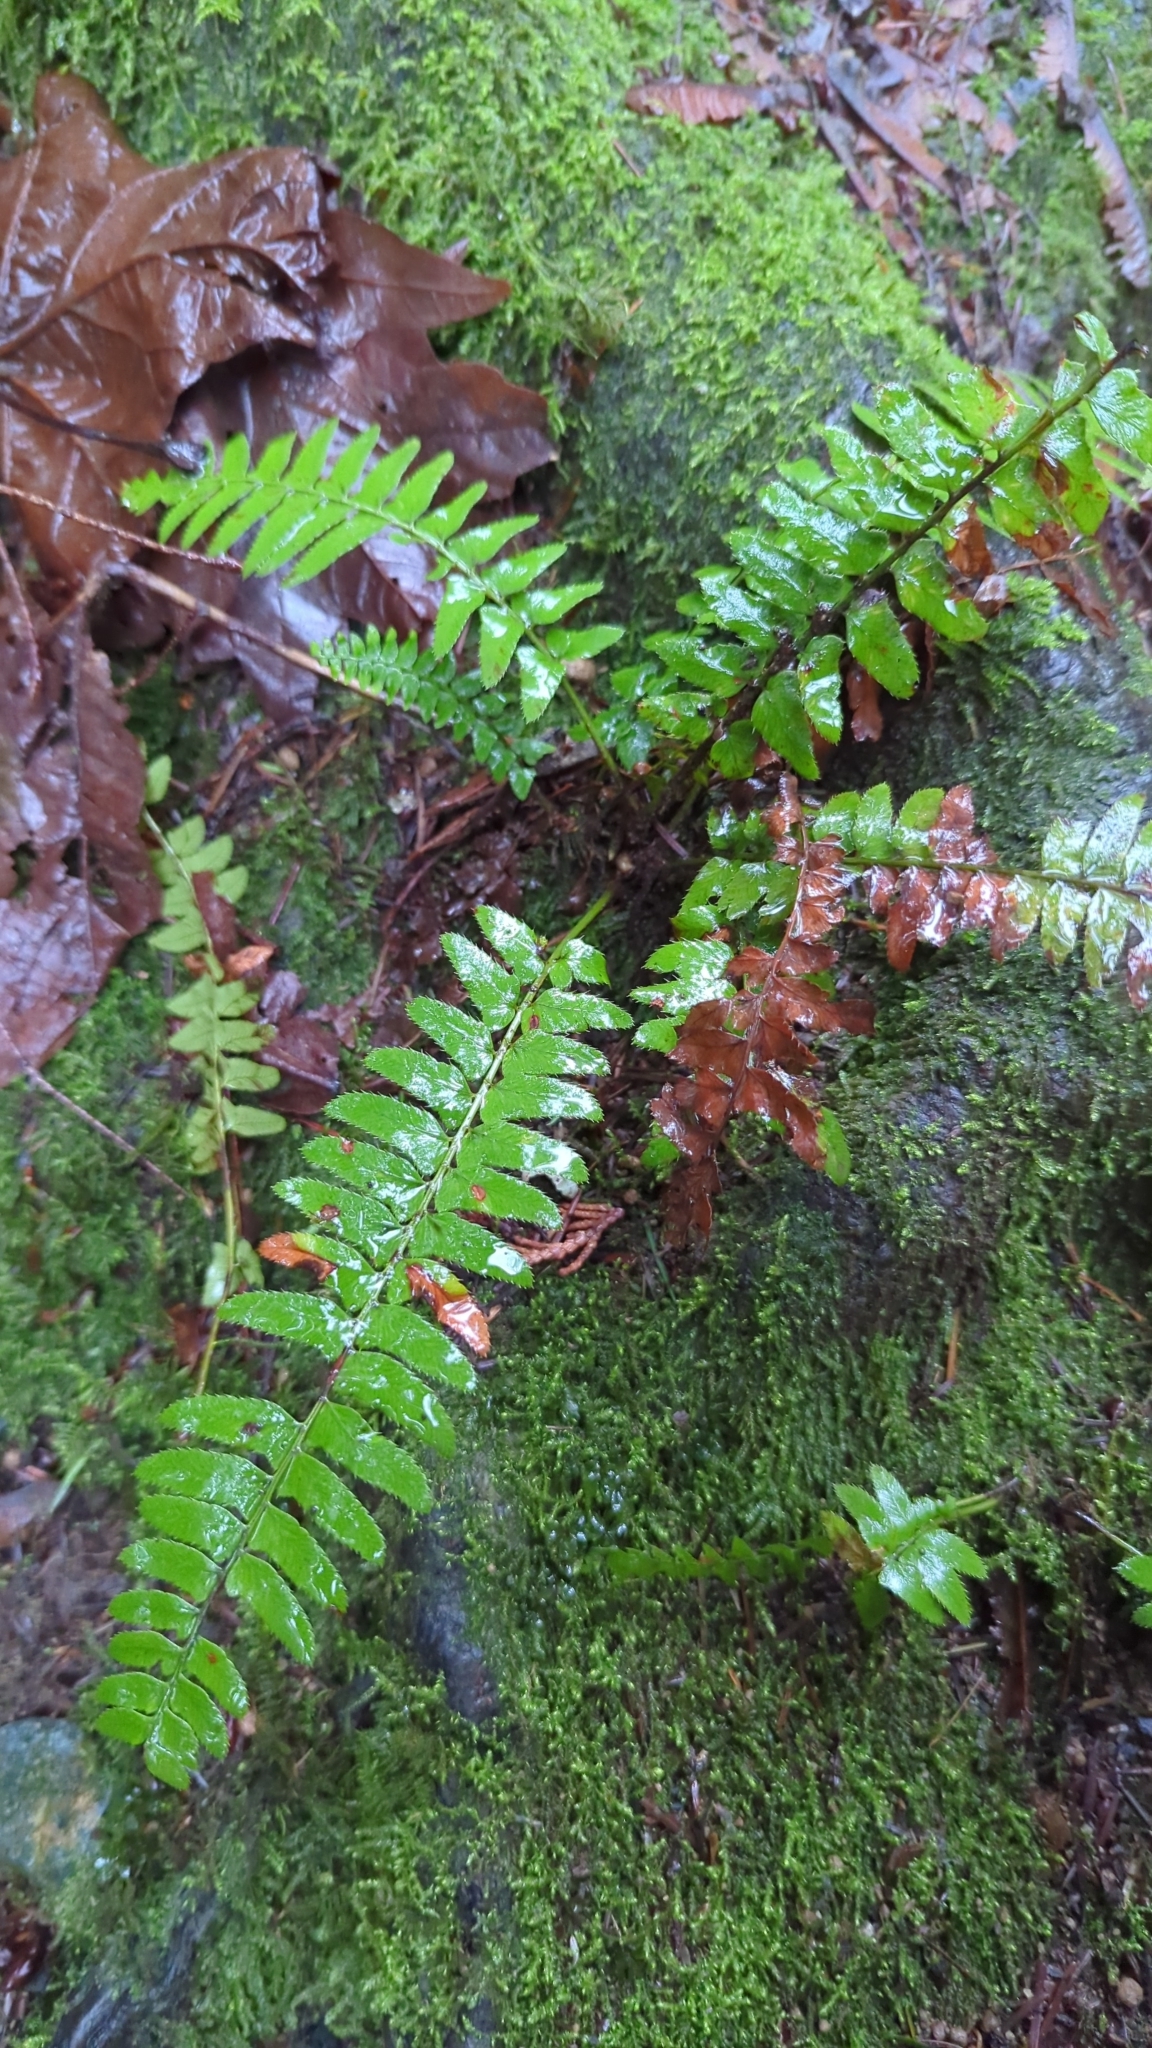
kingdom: Plantae
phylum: Tracheophyta
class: Polypodiopsida
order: Polypodiales
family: Dryopteridaceae
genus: Polystichum
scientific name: Polystichum munitum
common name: Western sword-fern
